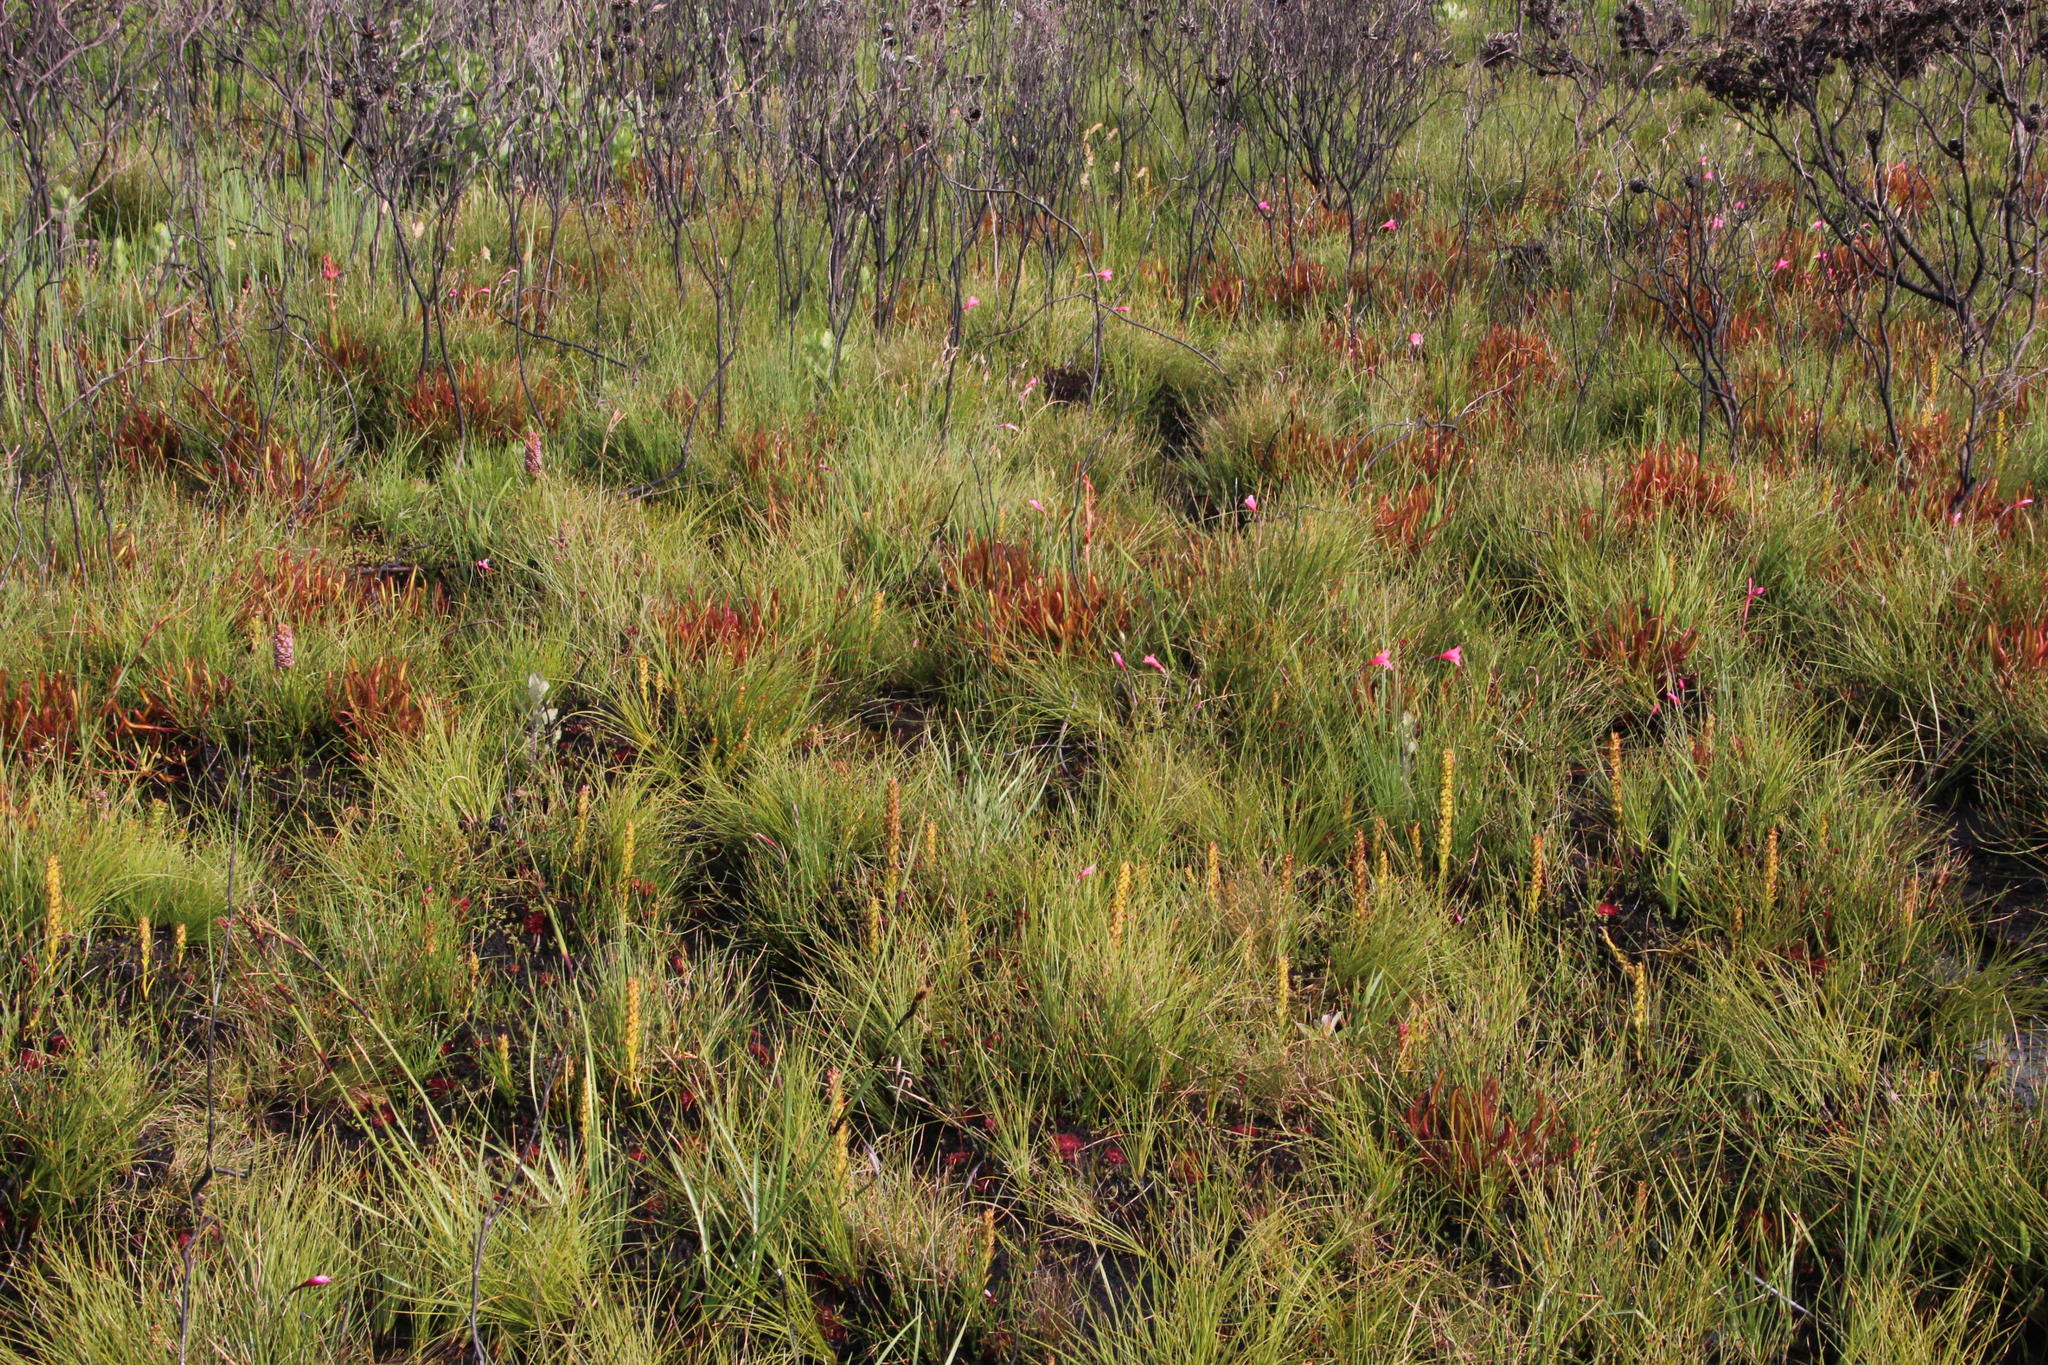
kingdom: Plantae
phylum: Tracheophyta
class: Magnoliopsida
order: Caryophyllales
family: Droseraceae
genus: Drosera
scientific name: Drosera capensis
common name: Cape sundew
